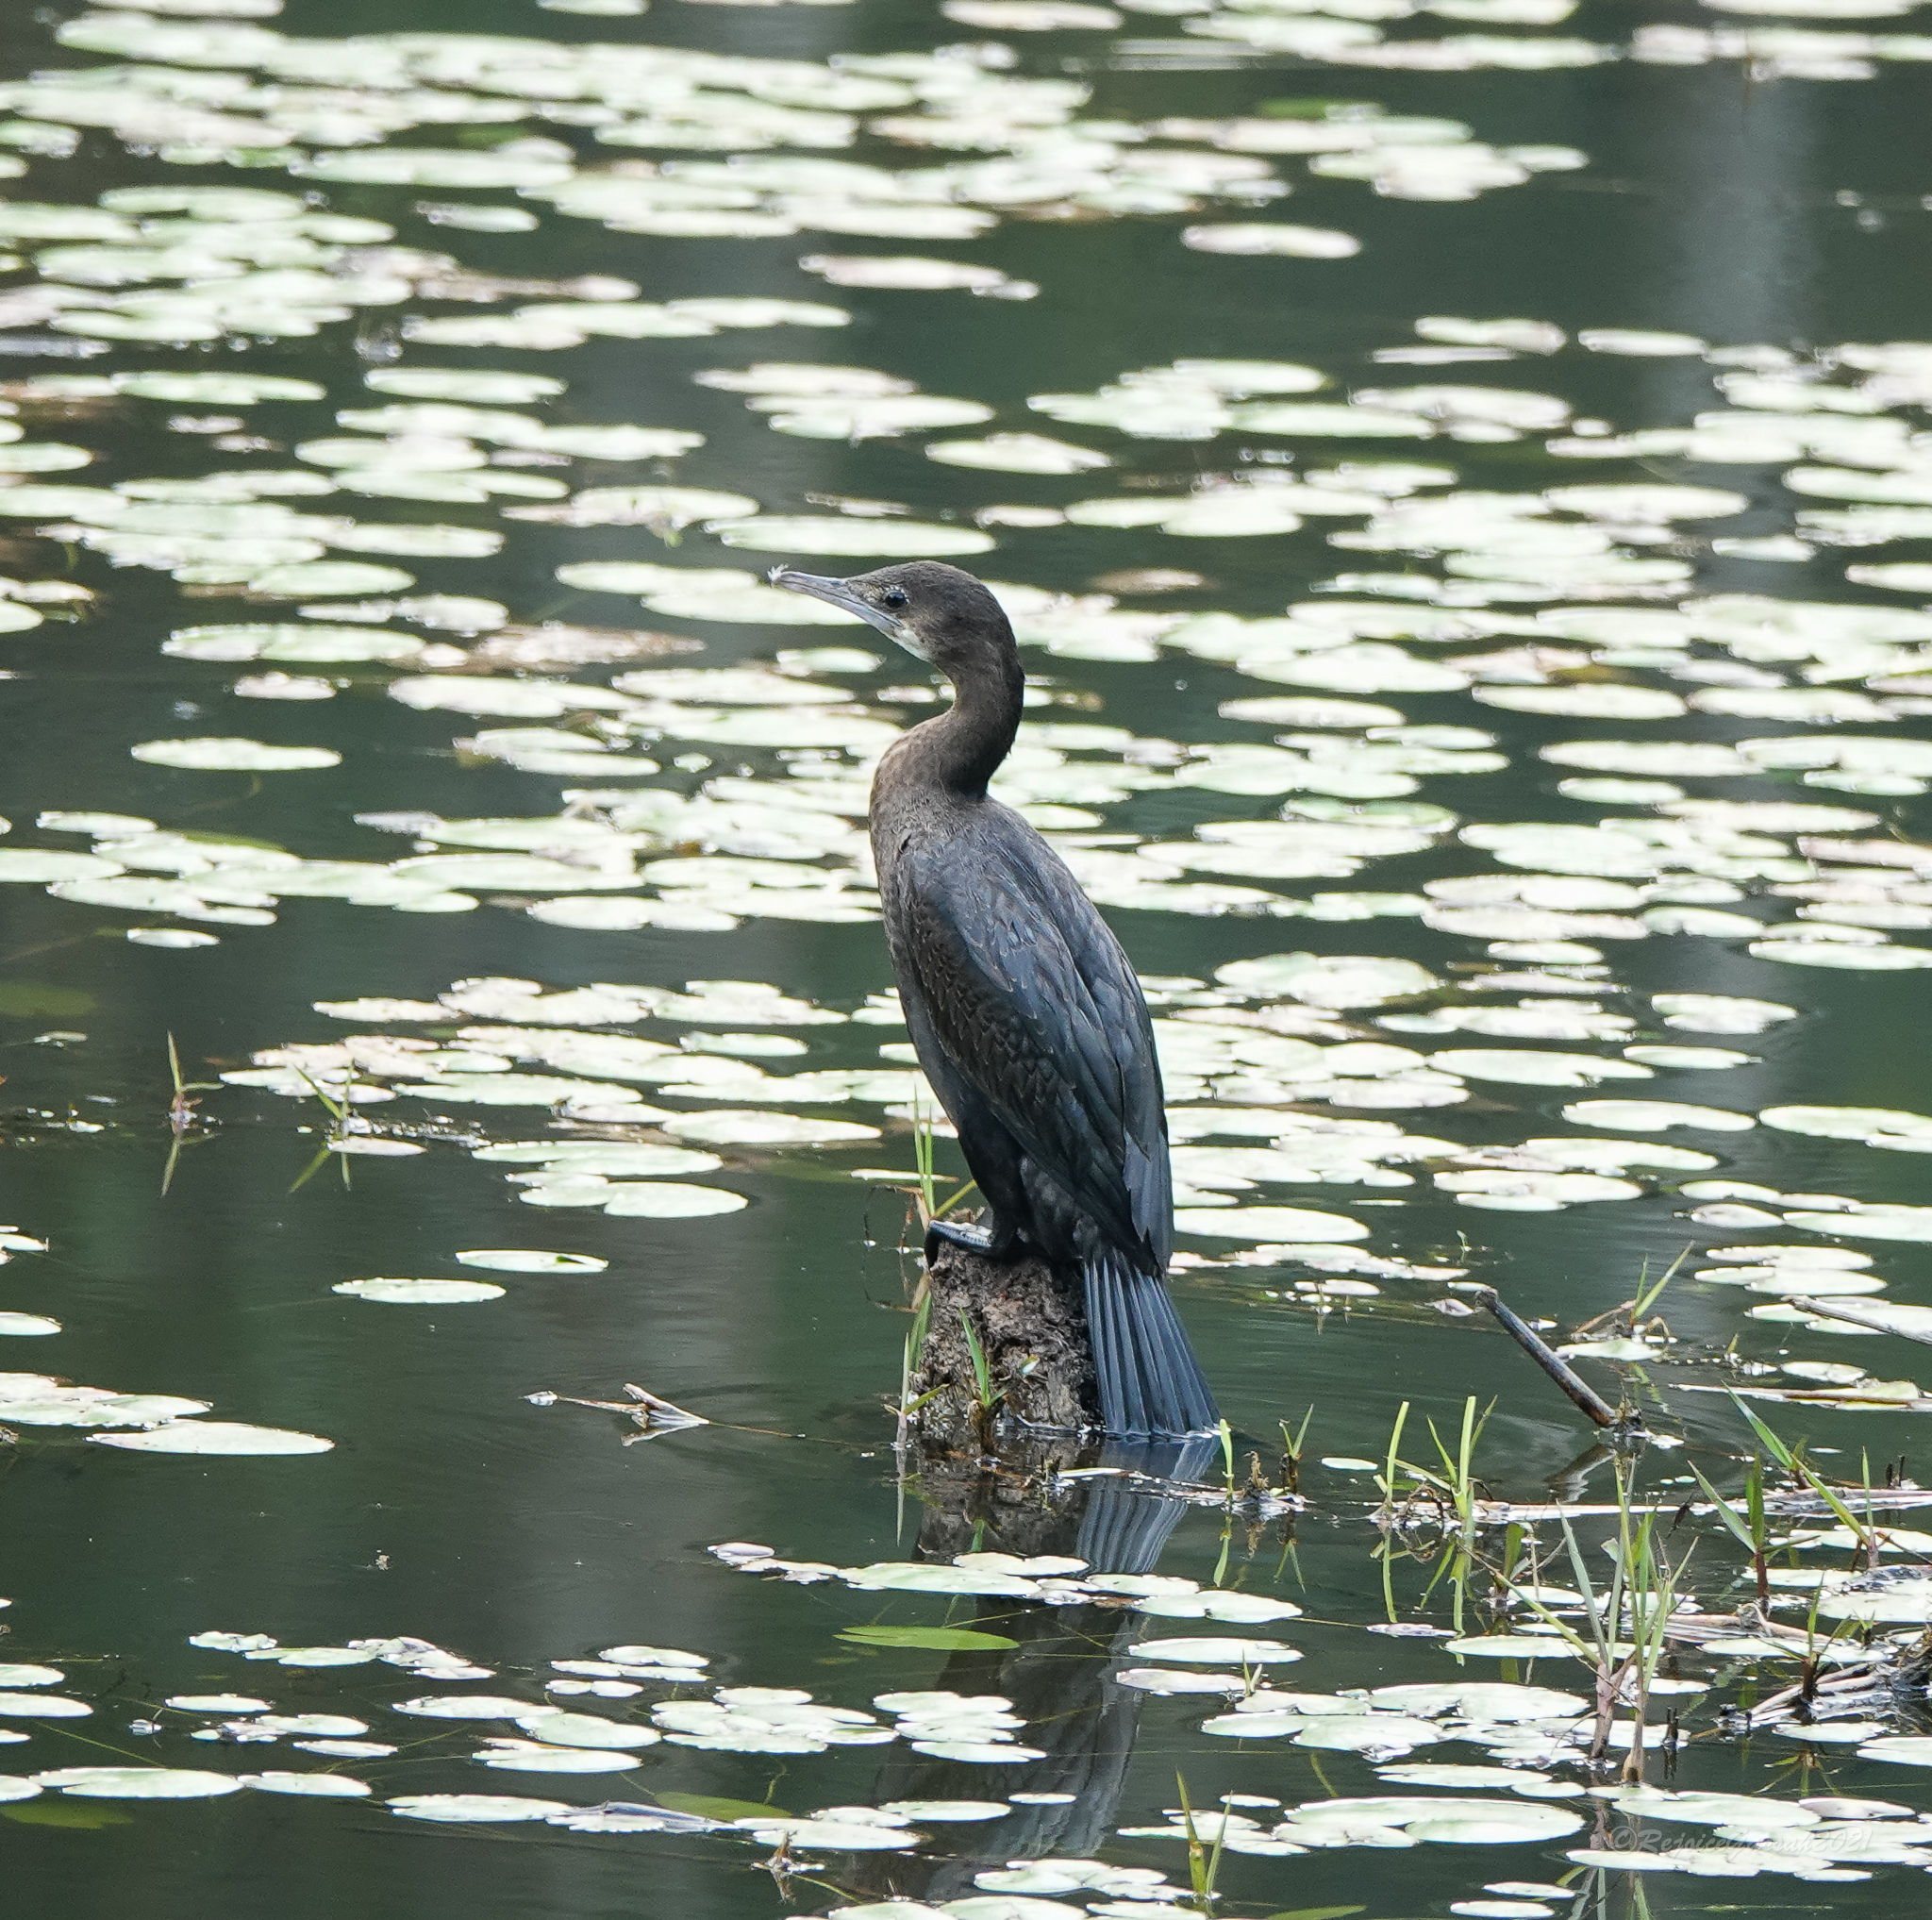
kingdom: Animalia
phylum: Chordata
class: Aves
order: Suliformes
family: Phalacrocoracidae
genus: Microcarbo
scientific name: Microcarbo niger
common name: Little cormorant
